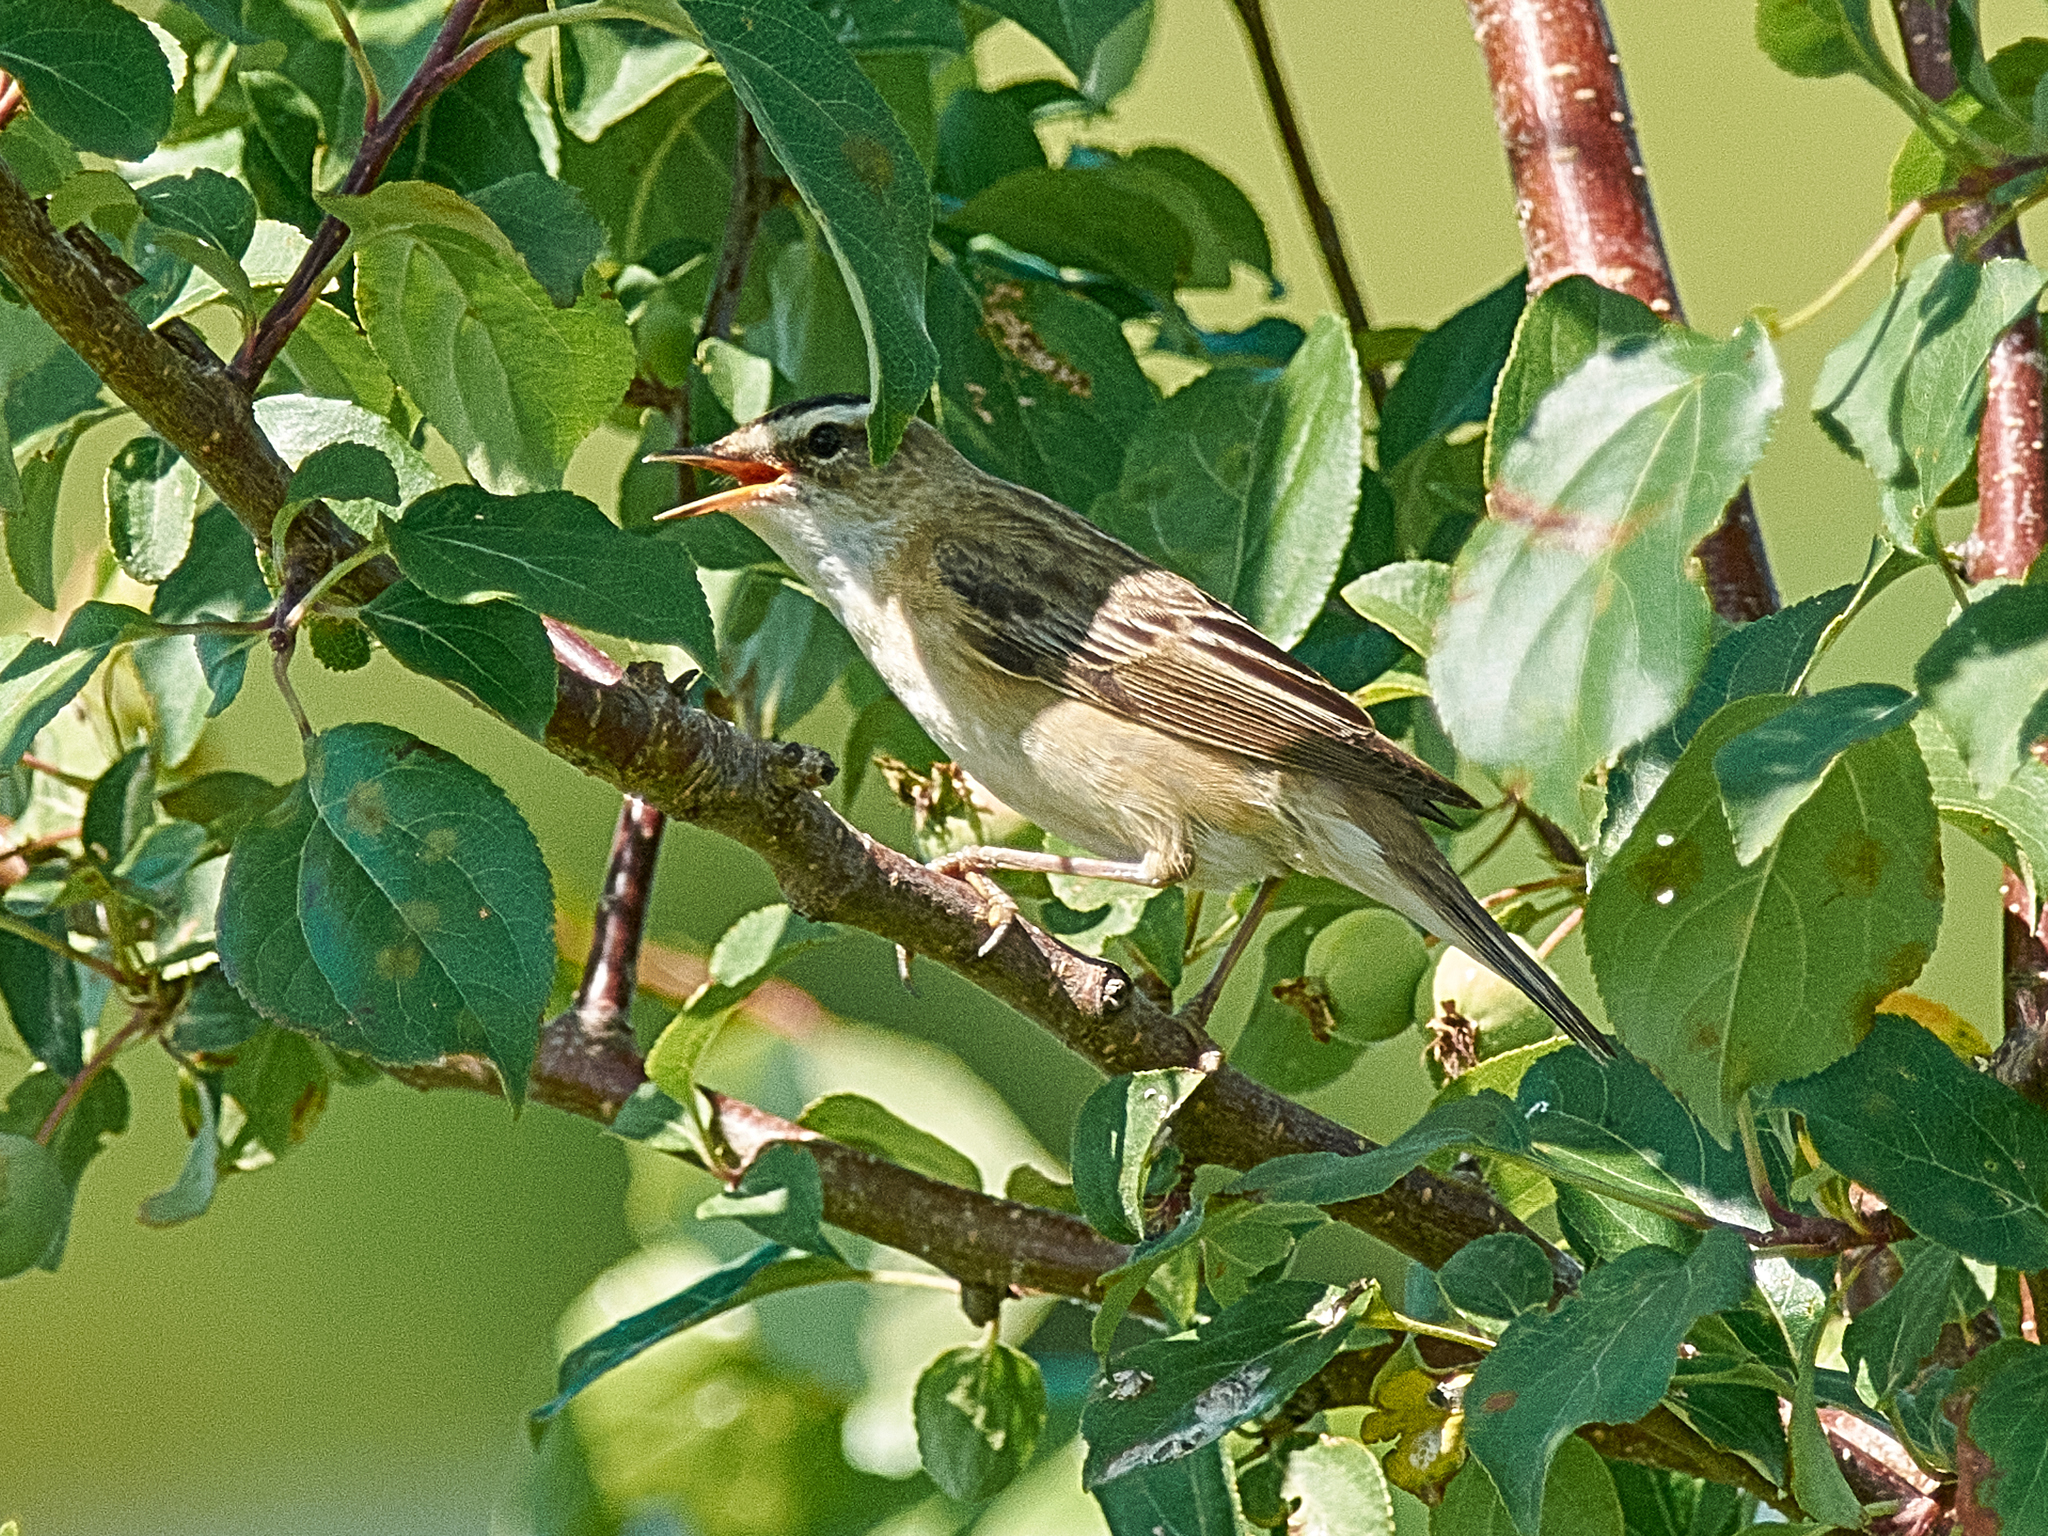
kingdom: Animalia
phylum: Chordata
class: Aves
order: Passeriformes
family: Acrocephalidae
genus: Acrocephalus
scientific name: Acrocephalus schoenobaenus
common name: Sedge warbler
